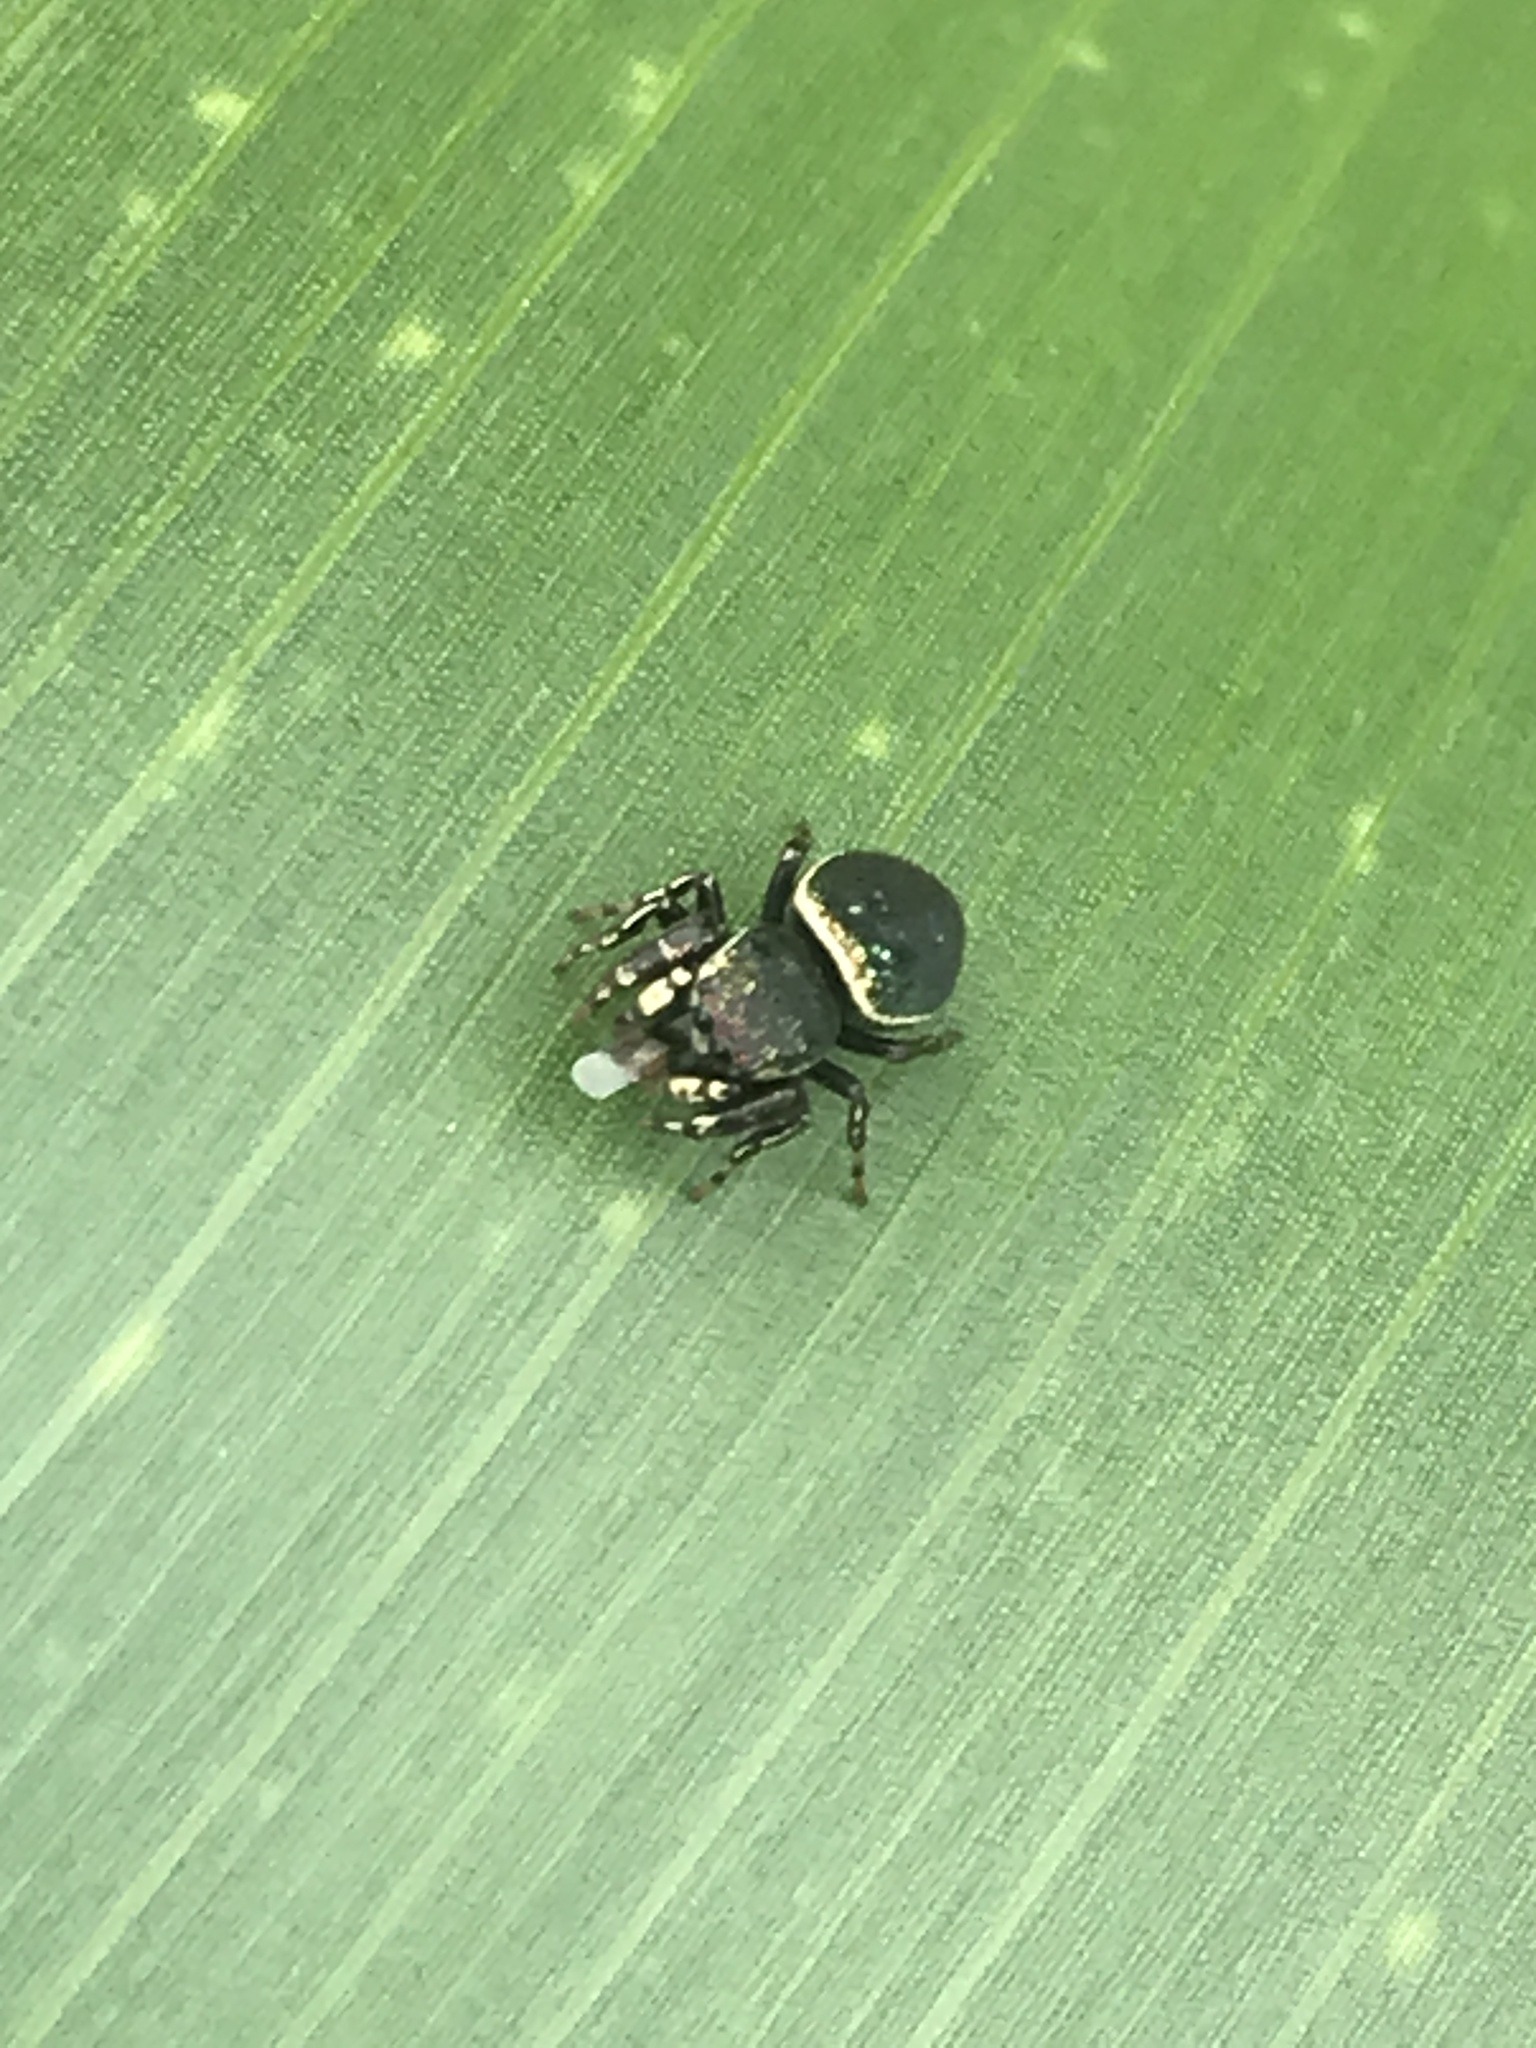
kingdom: Animalia
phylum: Arthropoda
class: Arachnida
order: Araneae
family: Salticidae
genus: Sassacus
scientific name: Sassacus papenhoei
